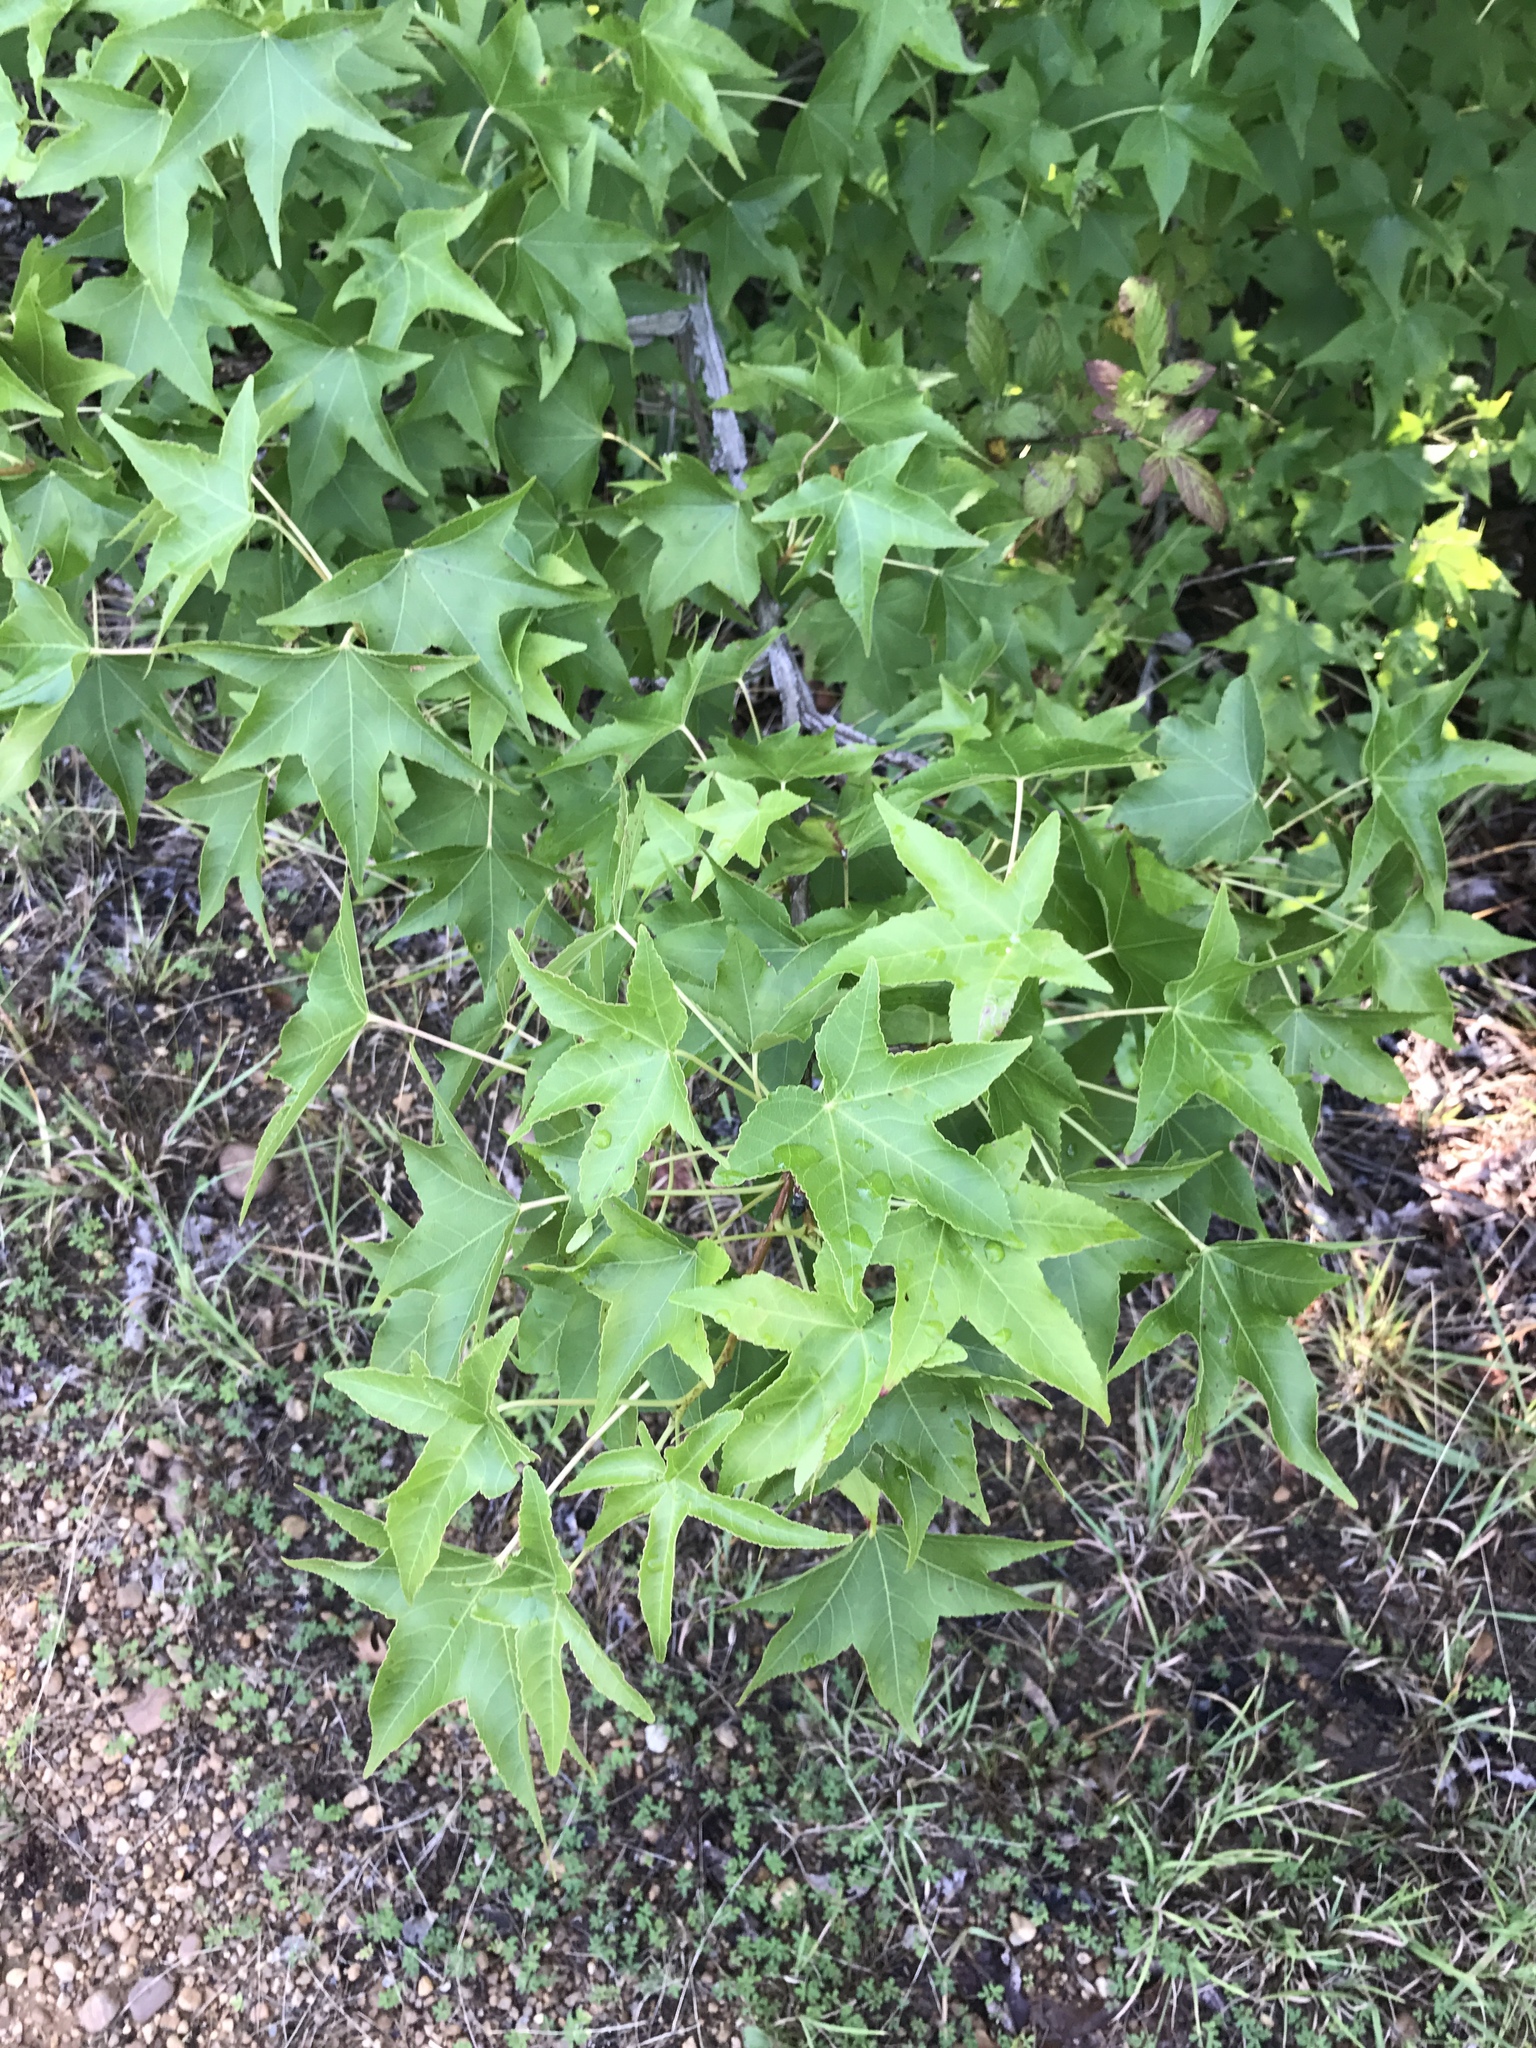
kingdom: Plantae
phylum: Tracheophyta
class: Magnoliopsida
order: Saxifragales
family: Altingiaceae
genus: Liquidambar
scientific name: Liquidambar styraciflua
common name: Sweet gum
